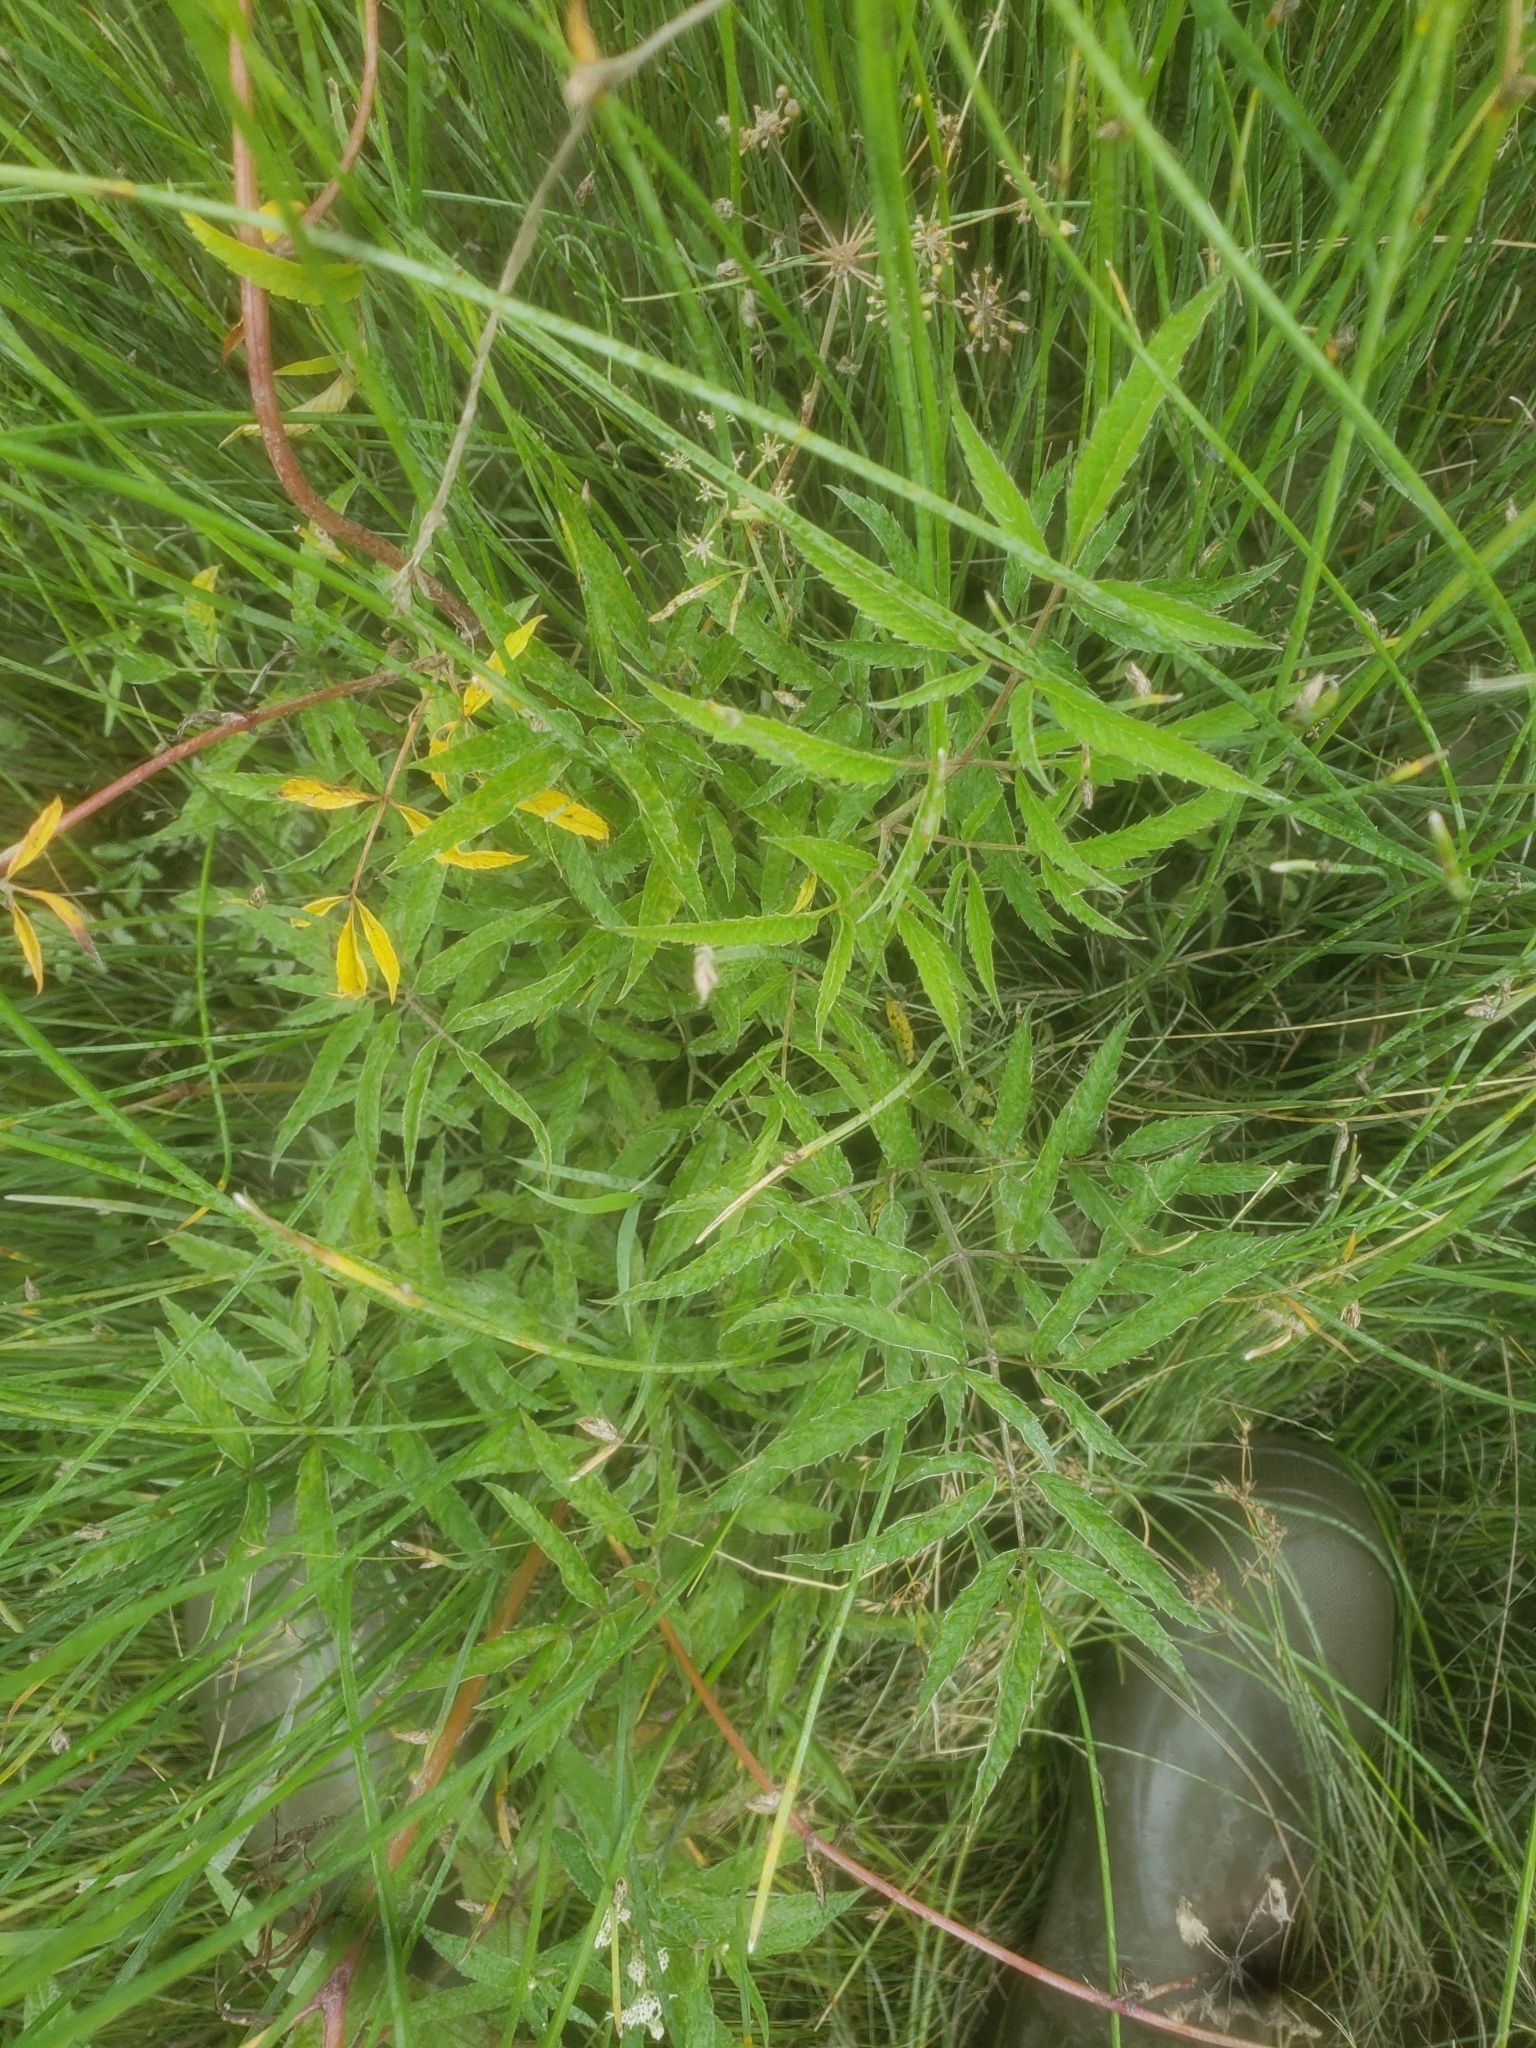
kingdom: Plantae
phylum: Tracheophyta
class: Magnoliopsida
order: Apiales
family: Apiaceae
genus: Cicuta
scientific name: Cicuta maculata
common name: Spotted cowbane
